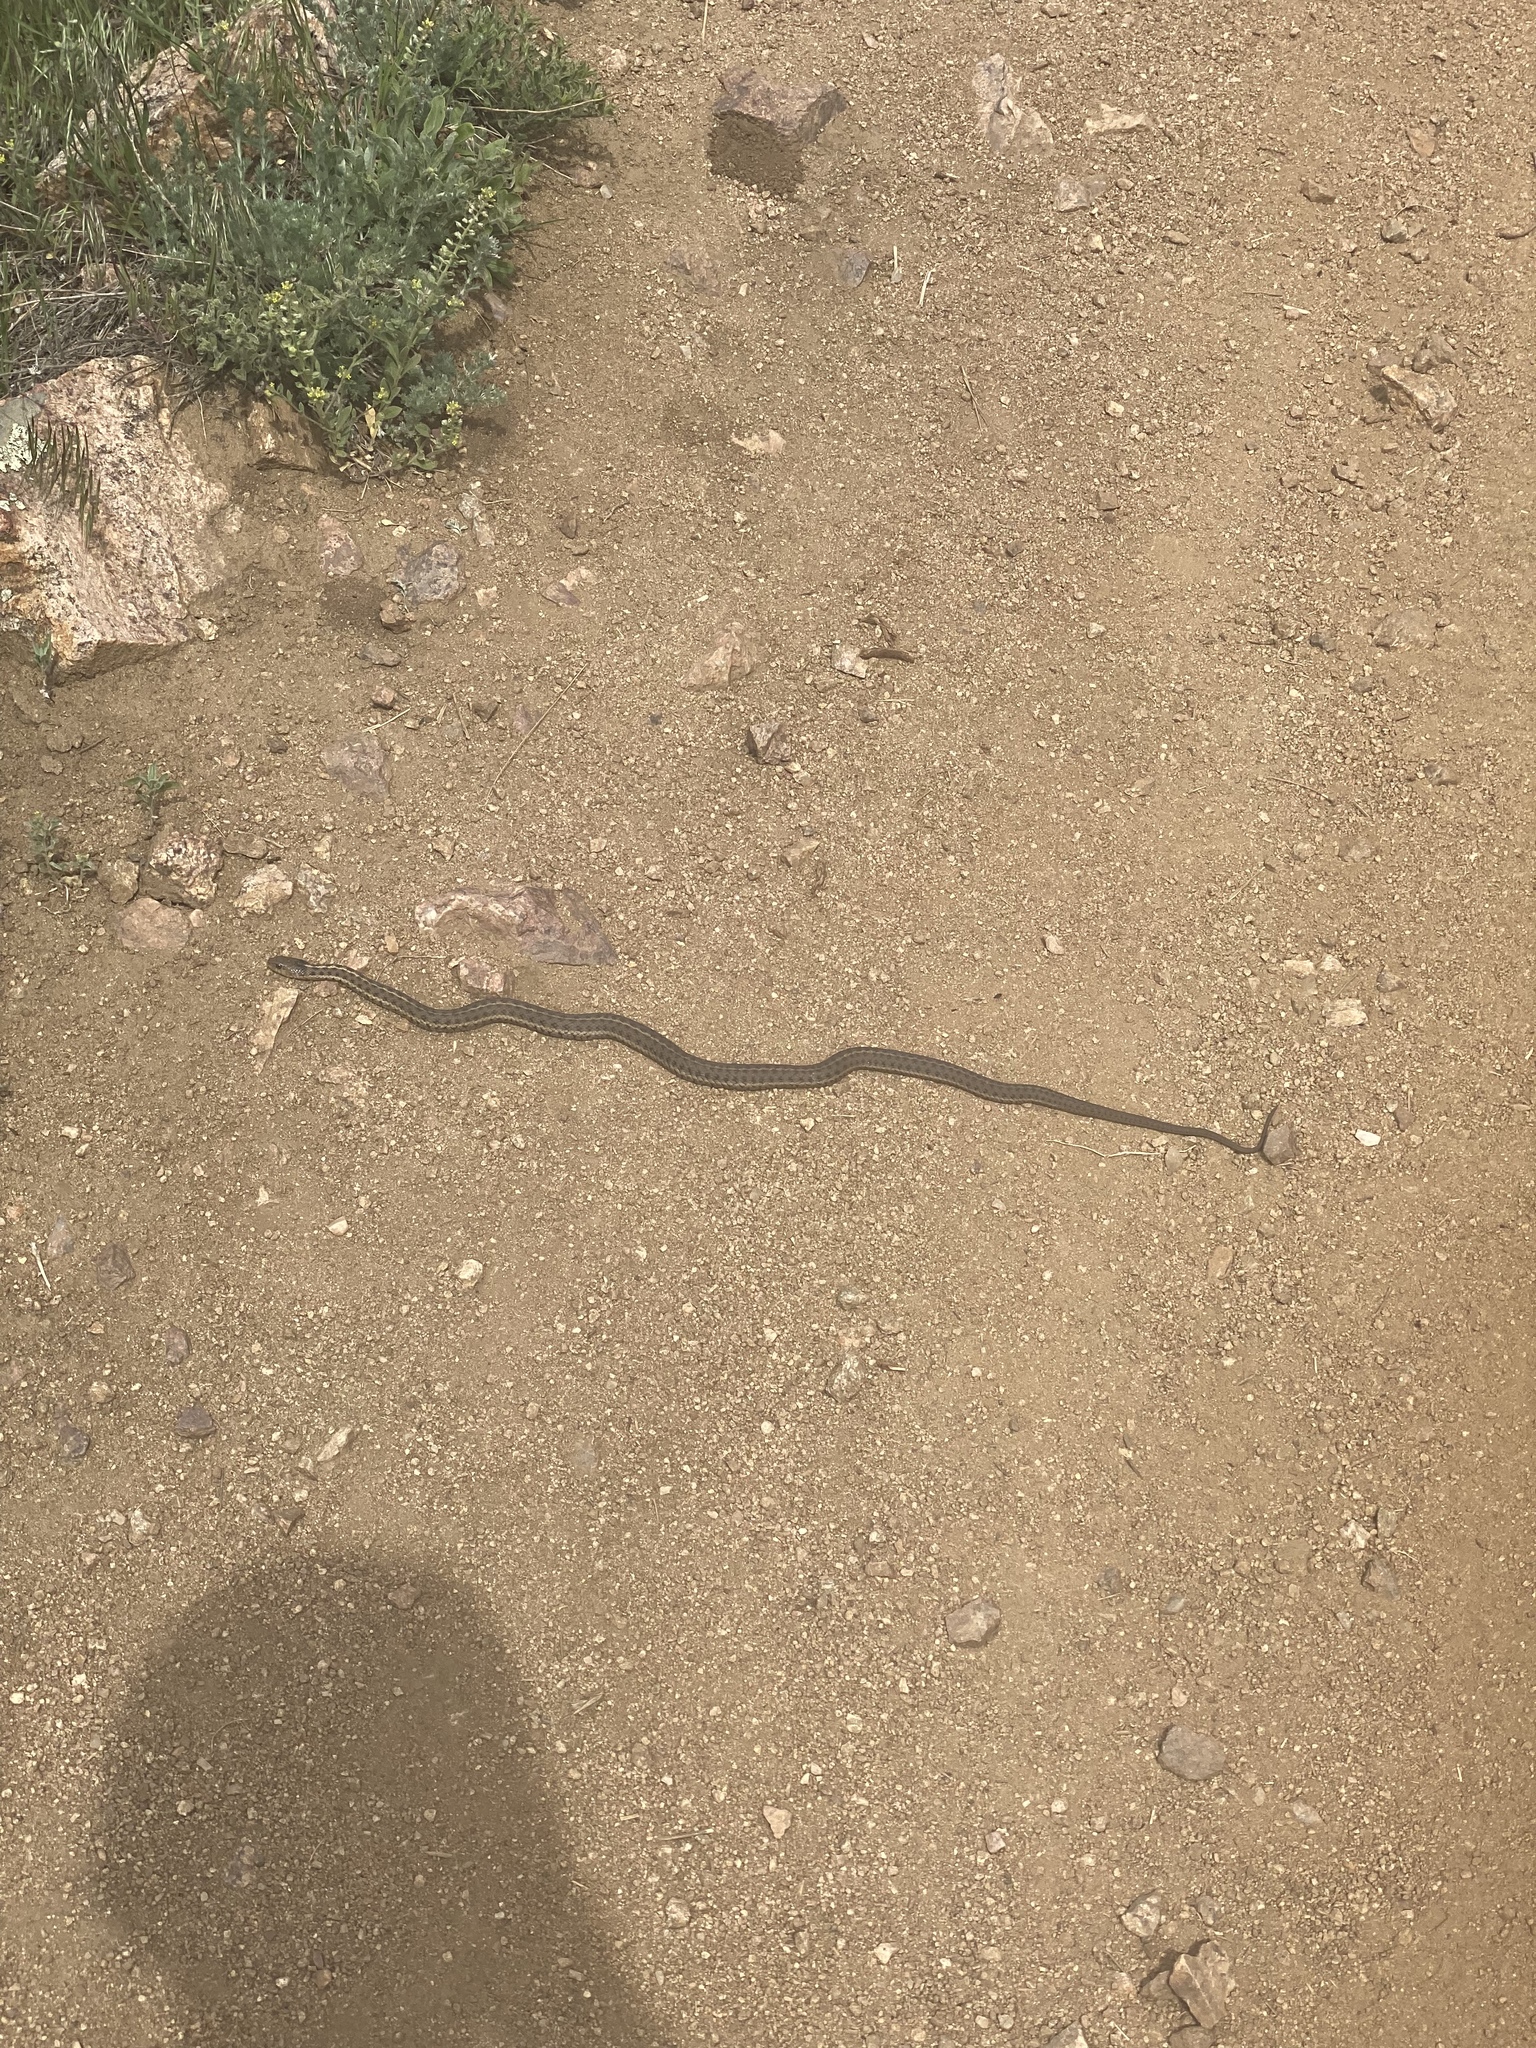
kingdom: Animalia
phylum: Chordata
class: Squamata
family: Colubridae
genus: Thamnophis
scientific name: Thamnophis elegans
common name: Western terrestrial garter snake
